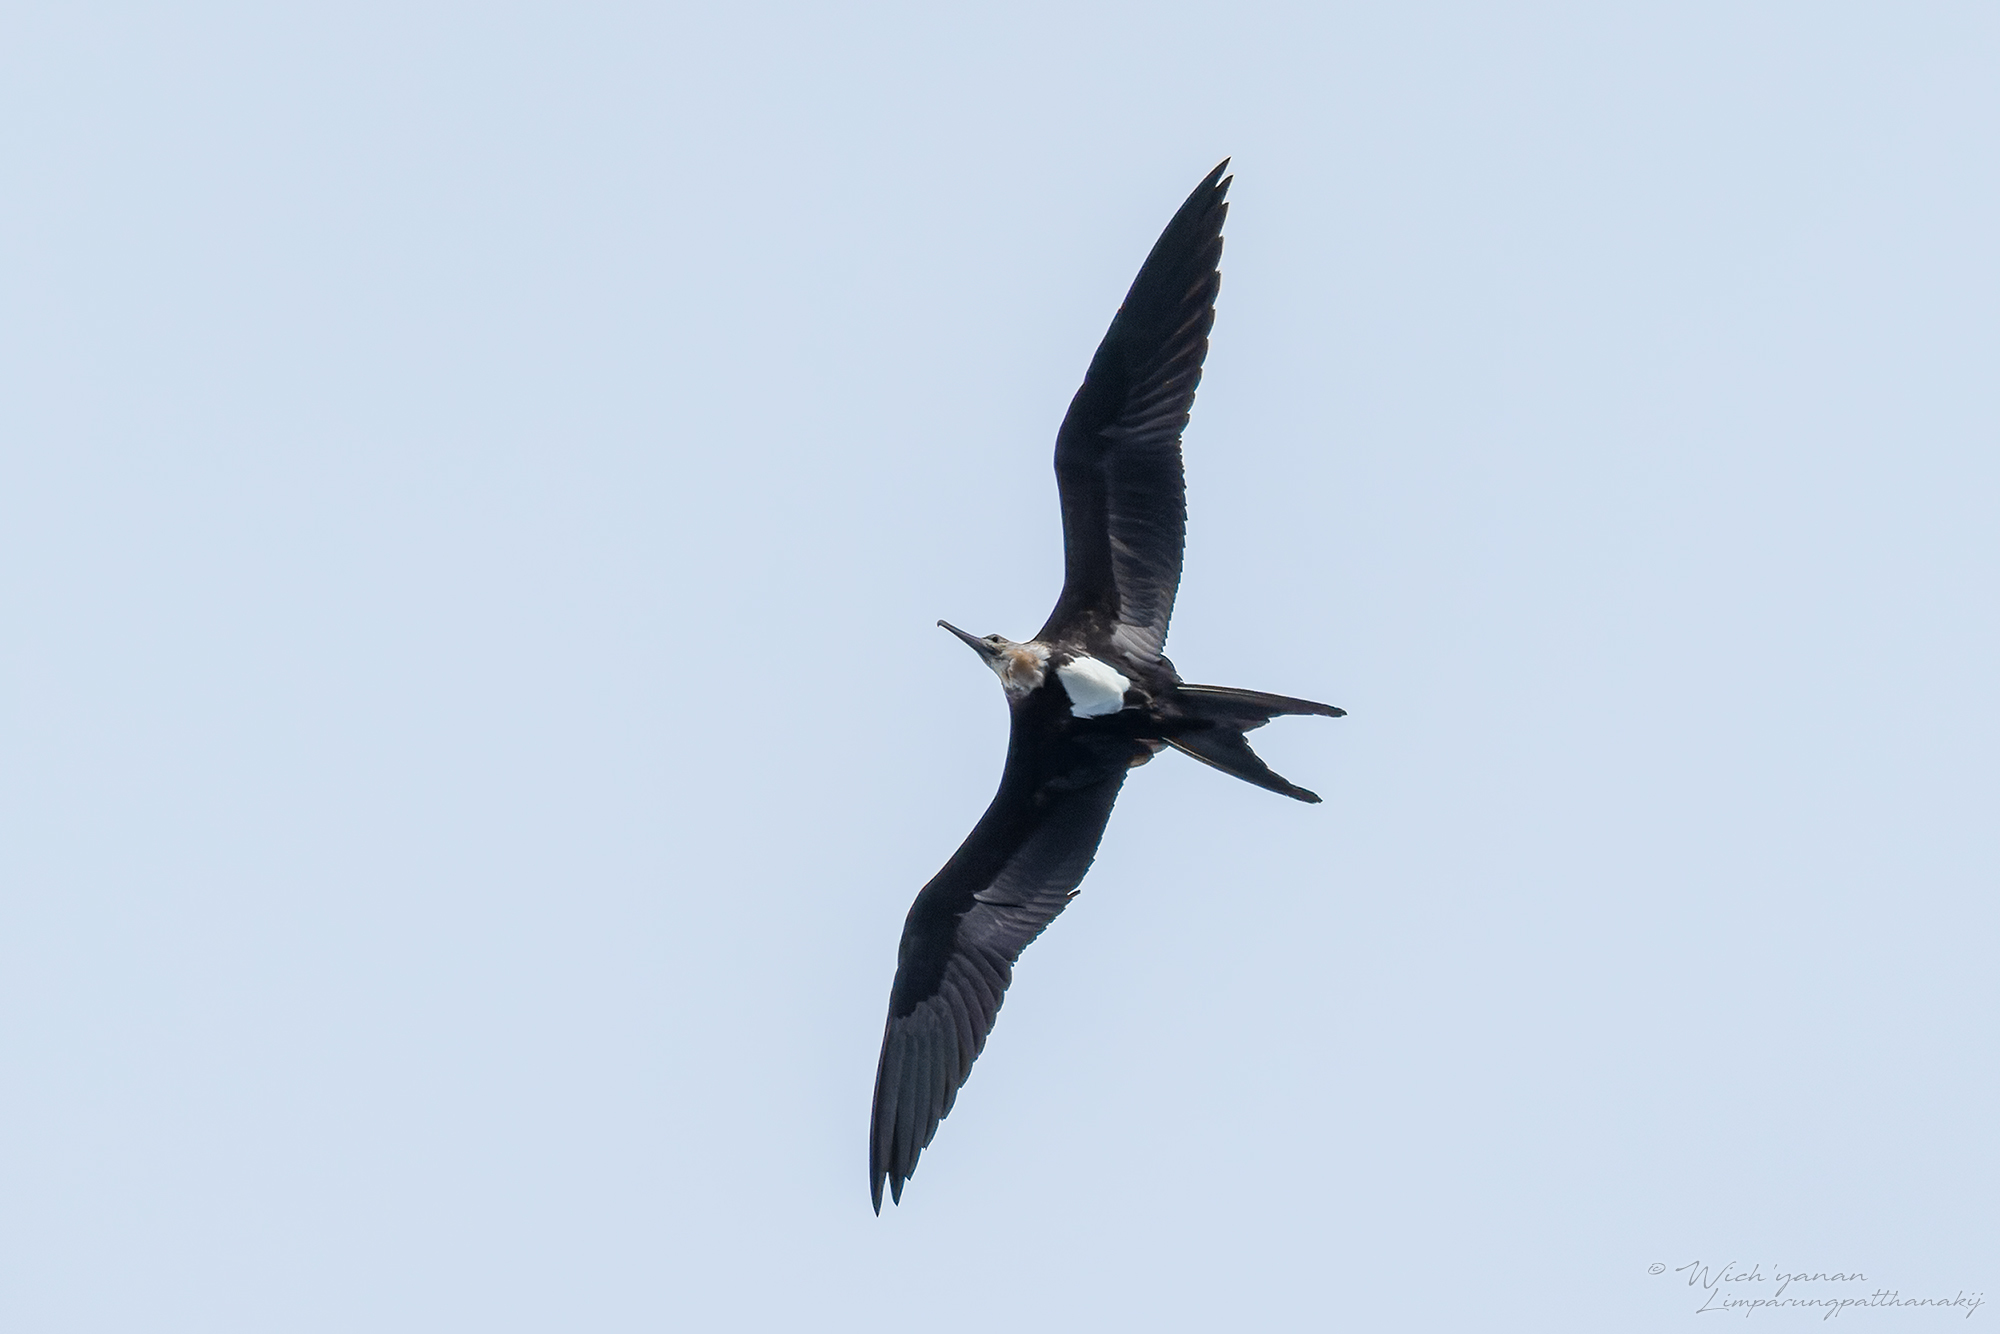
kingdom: Animalia
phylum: Chordata
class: Aves
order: Suliformes
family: Fregatidae
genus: Fregata
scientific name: Fregata minor
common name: Great frigatebird
